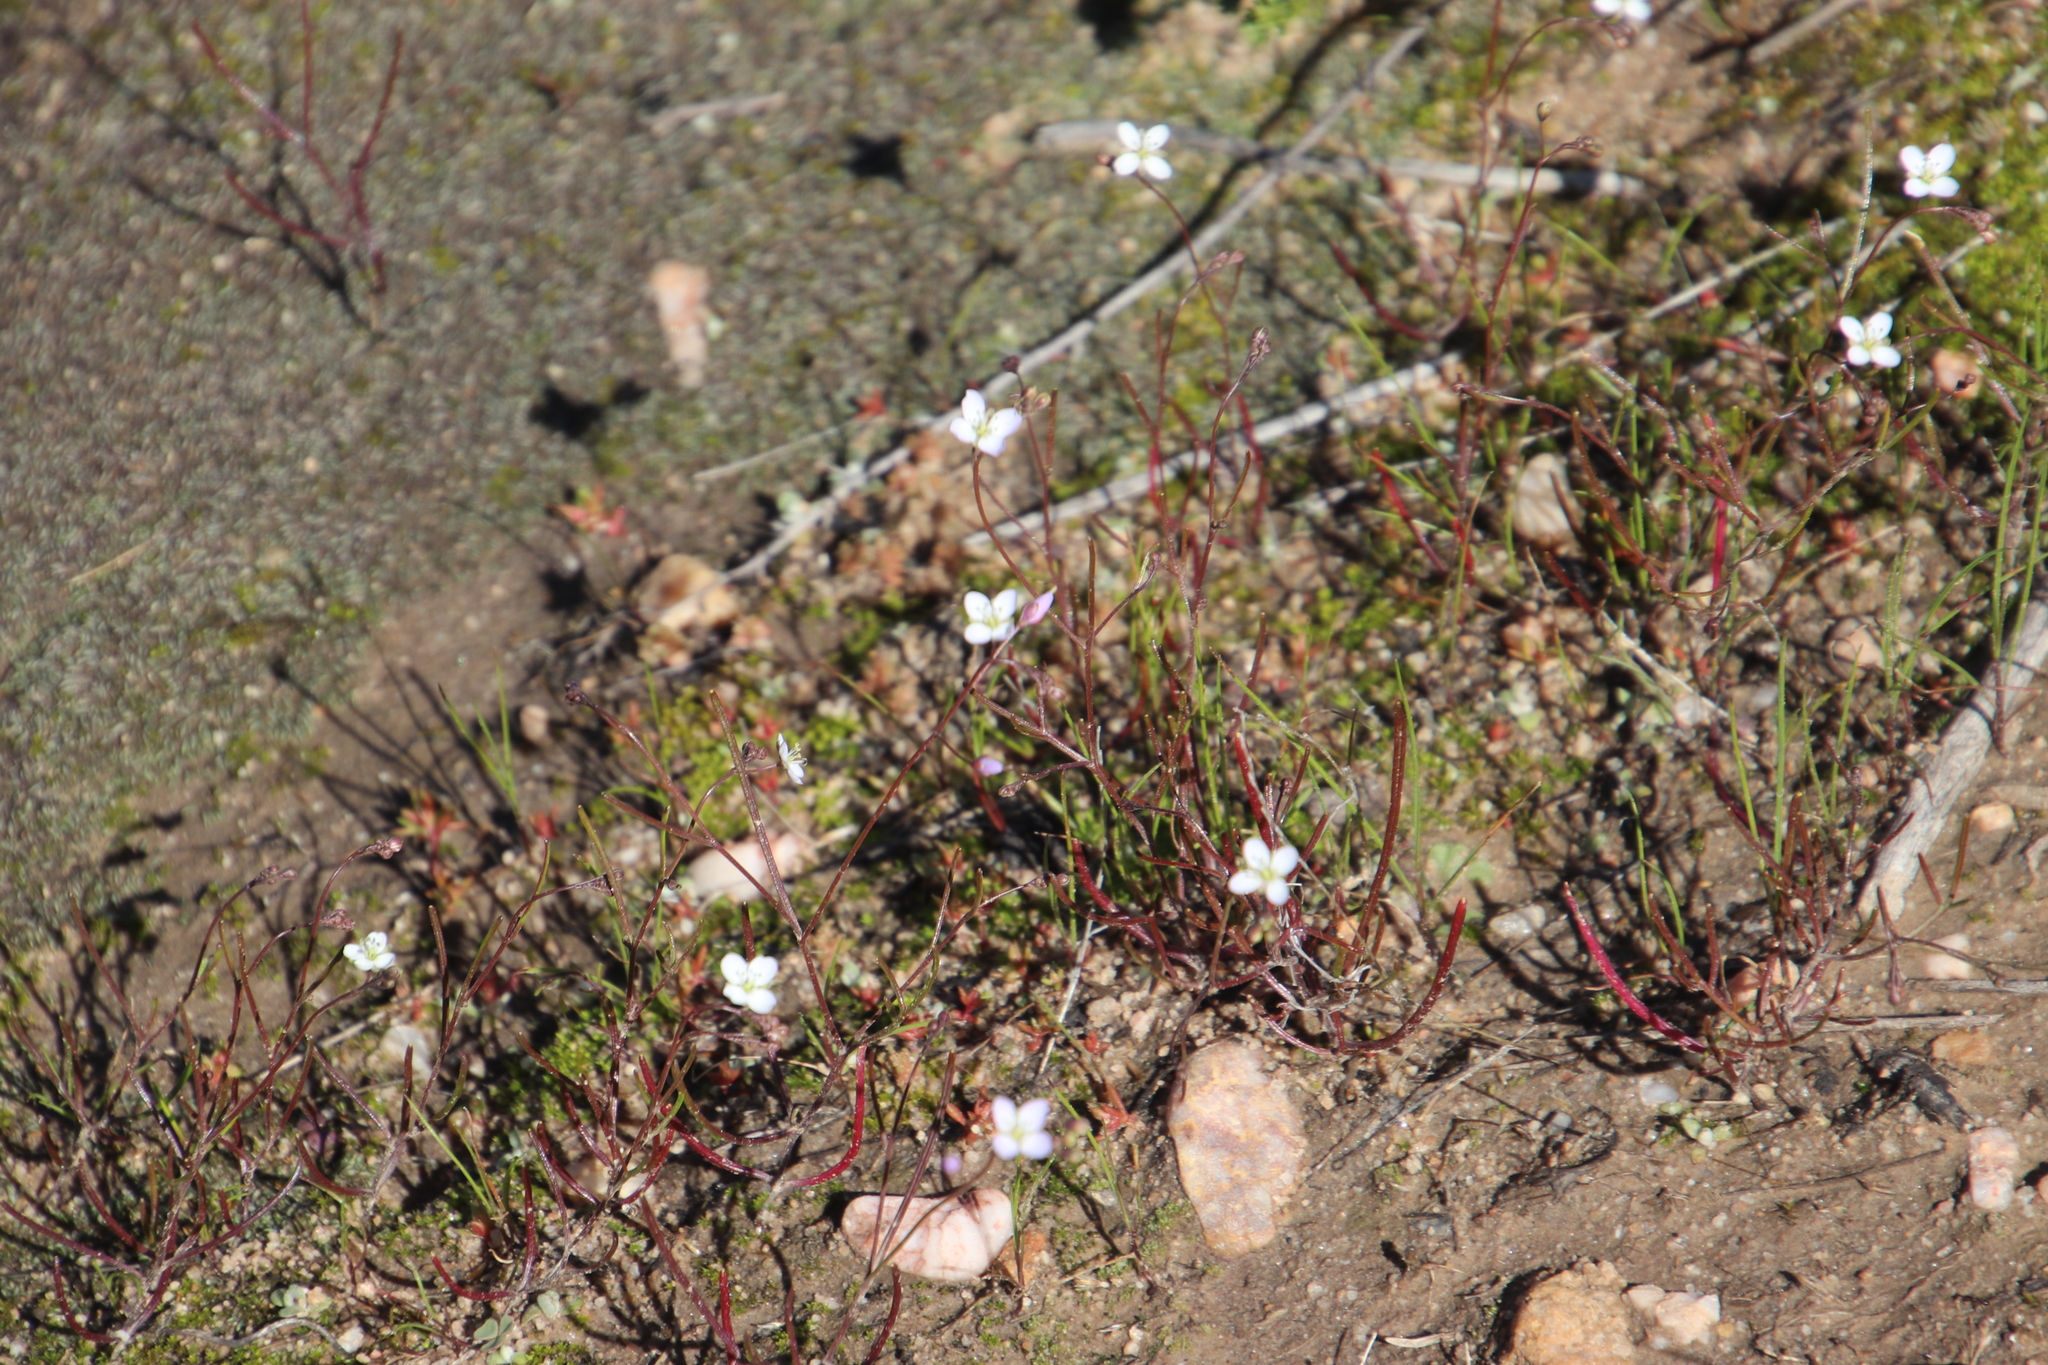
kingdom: Plantae
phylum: Tracheophyta
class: Magnoliopsida
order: Brassicales
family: Brassicaceae
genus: Heliophila
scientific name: Heliophila pinnata
